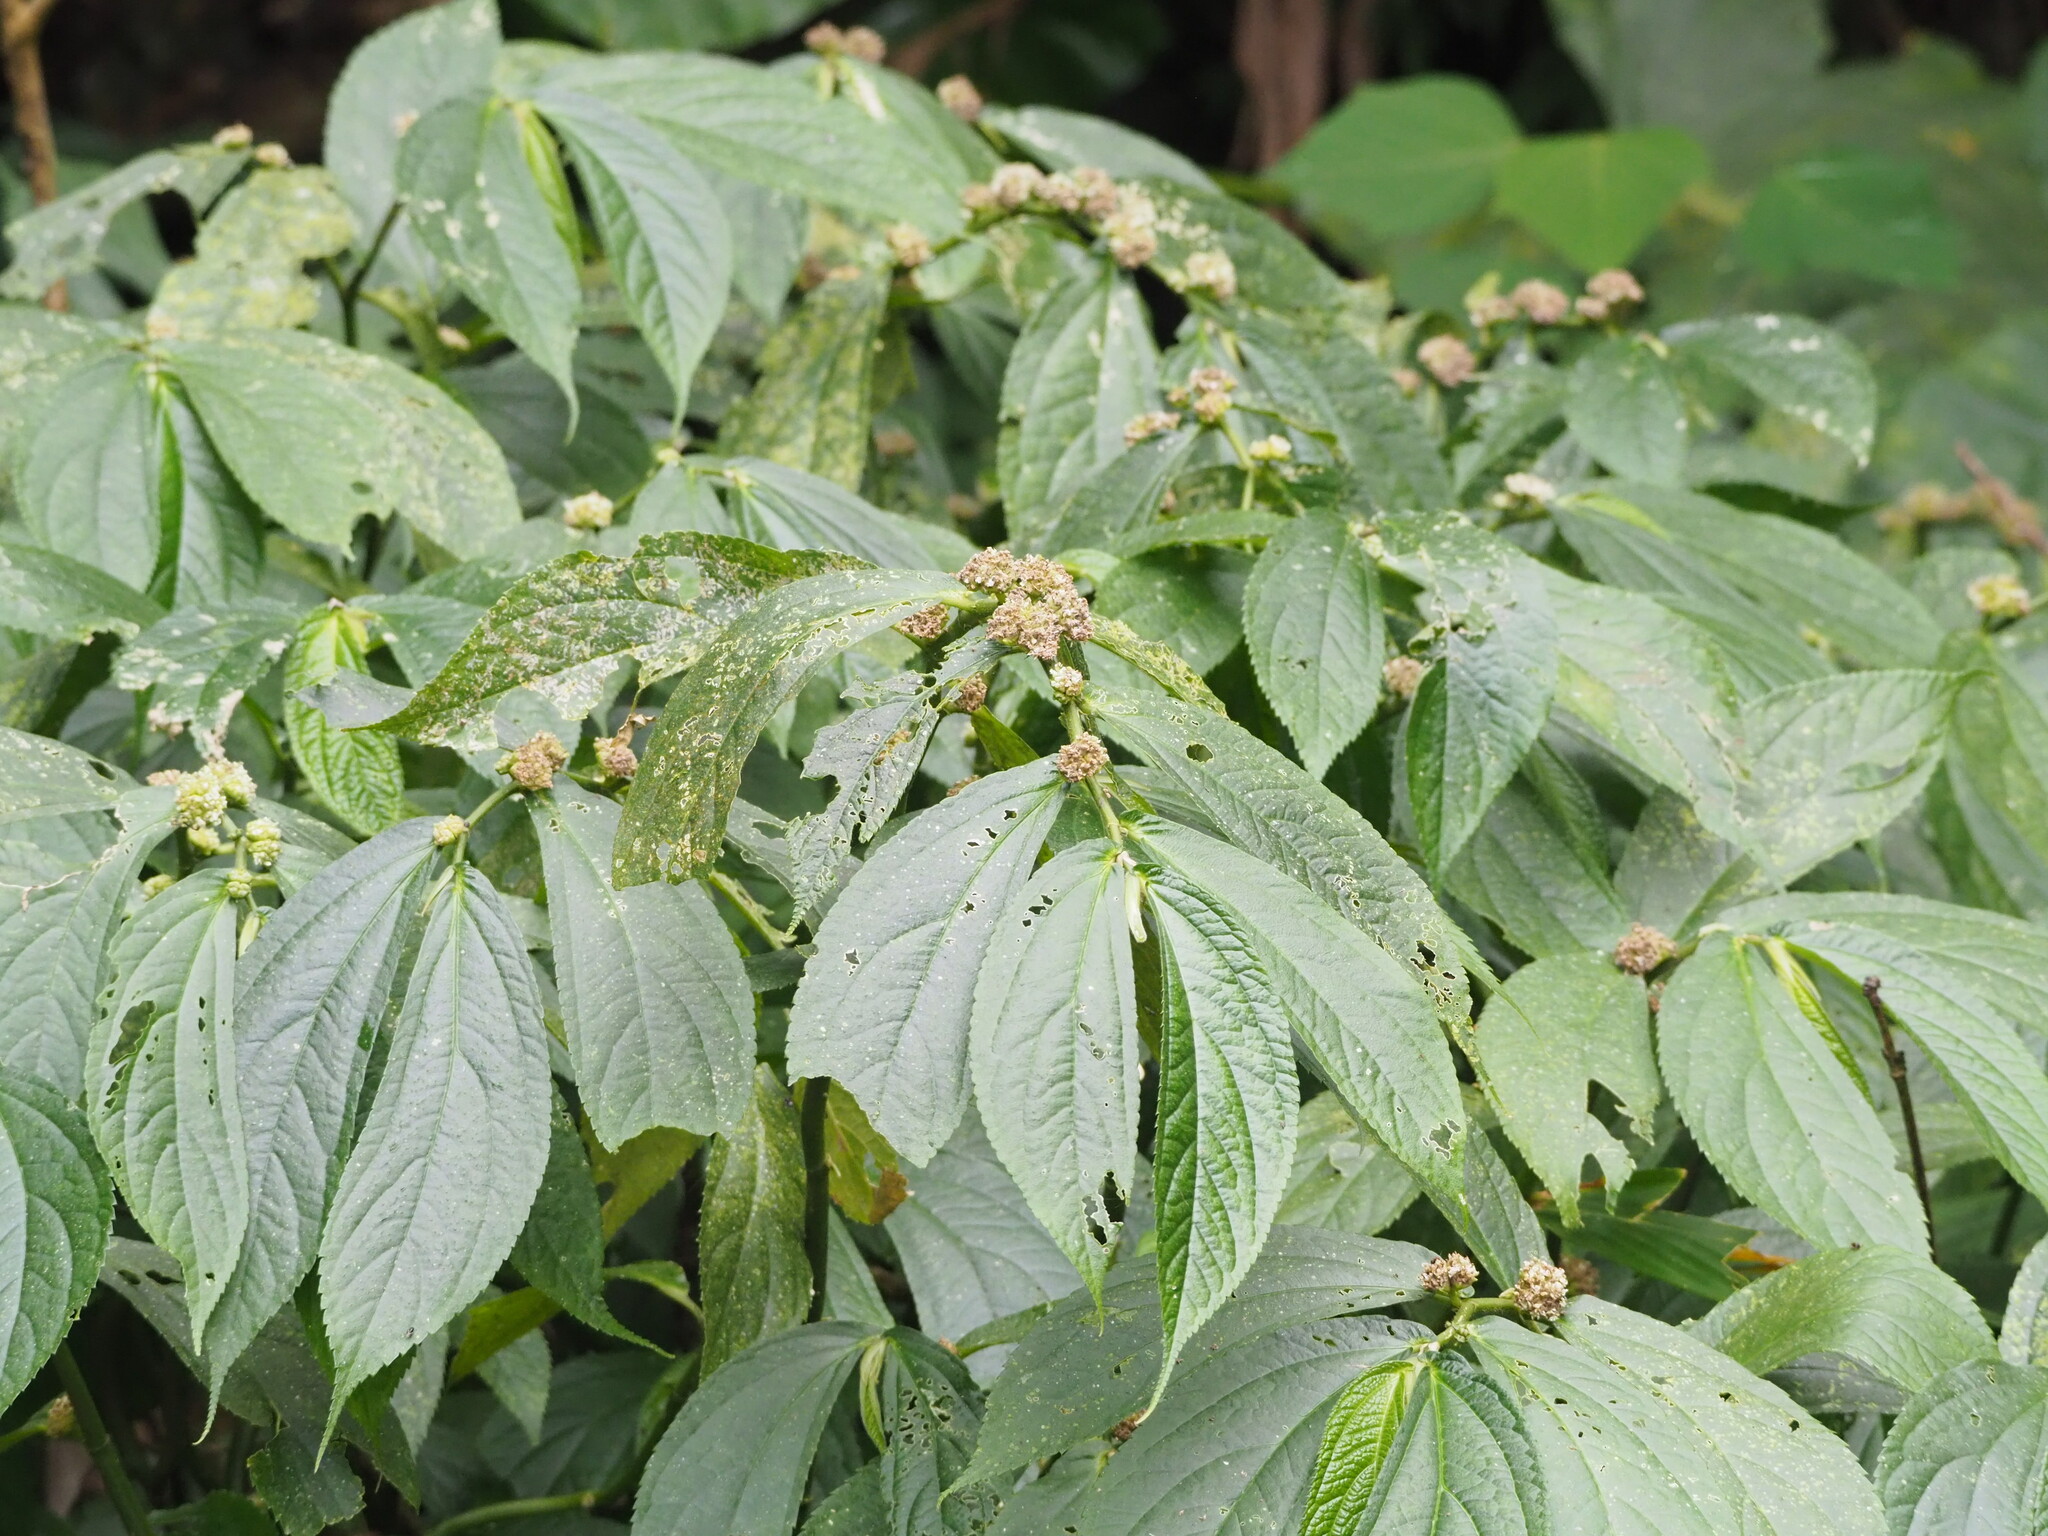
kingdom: Plantae
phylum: Tracheophyta
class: Magnoliopsida
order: Rosales
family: Urticaceae
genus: Elatostema
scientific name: Elatostema platyphyllum
